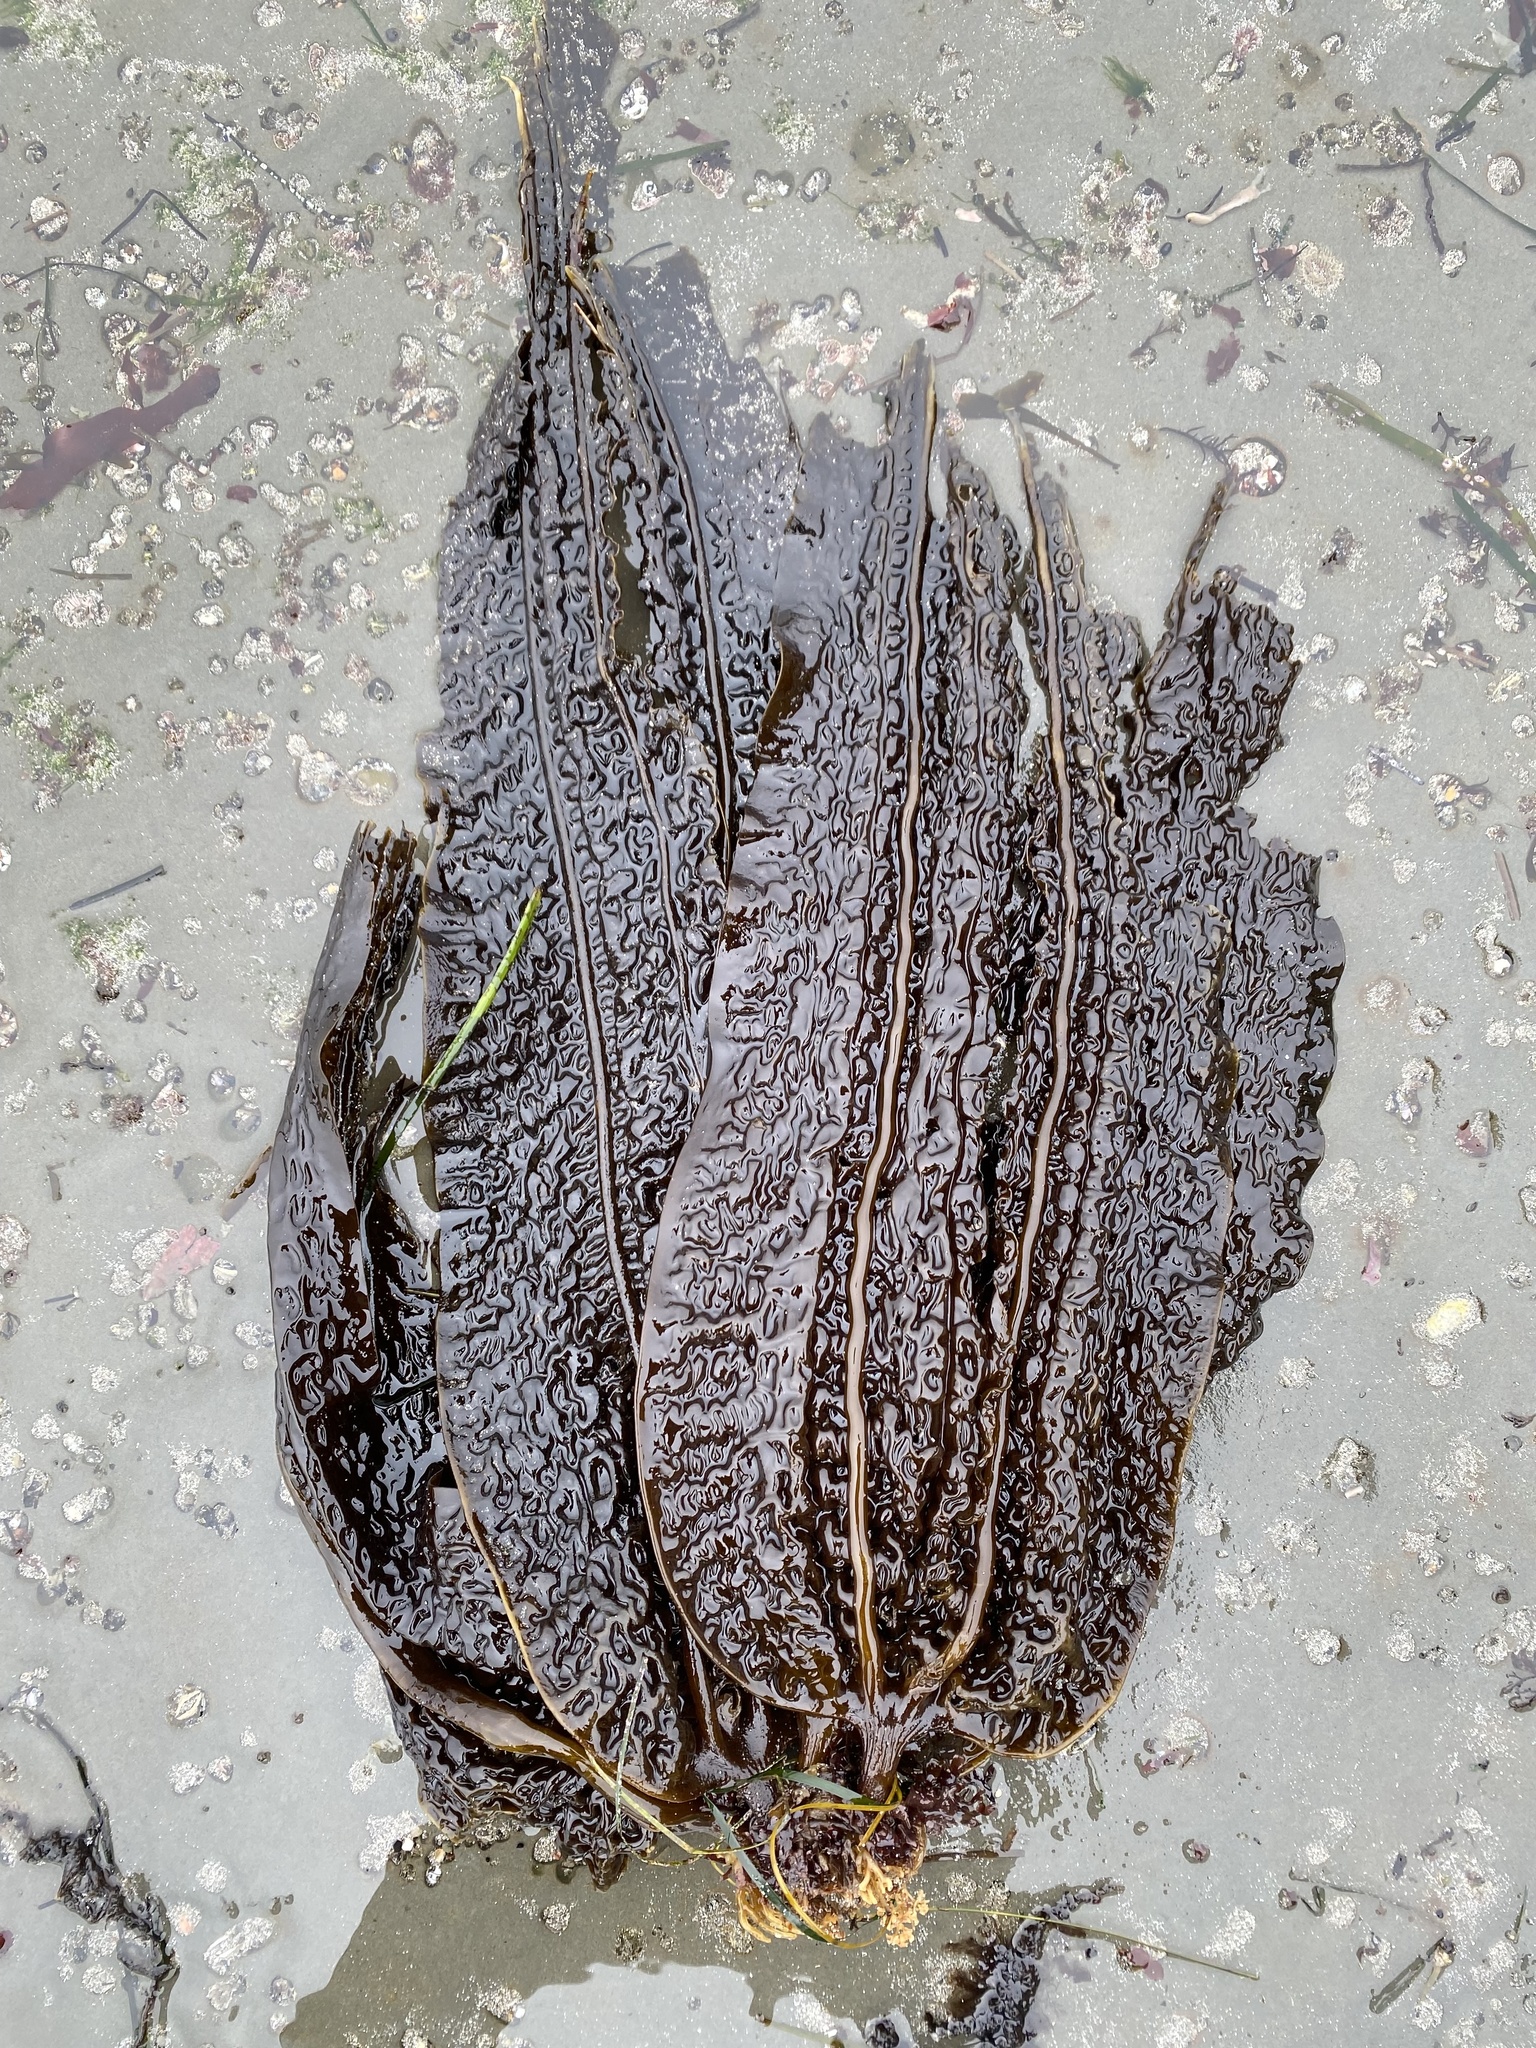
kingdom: Chromista
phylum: Ochrophyta
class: Phaeophyceae
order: Laminariales
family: Costariaceae
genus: Costaria
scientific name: Costaria costata
